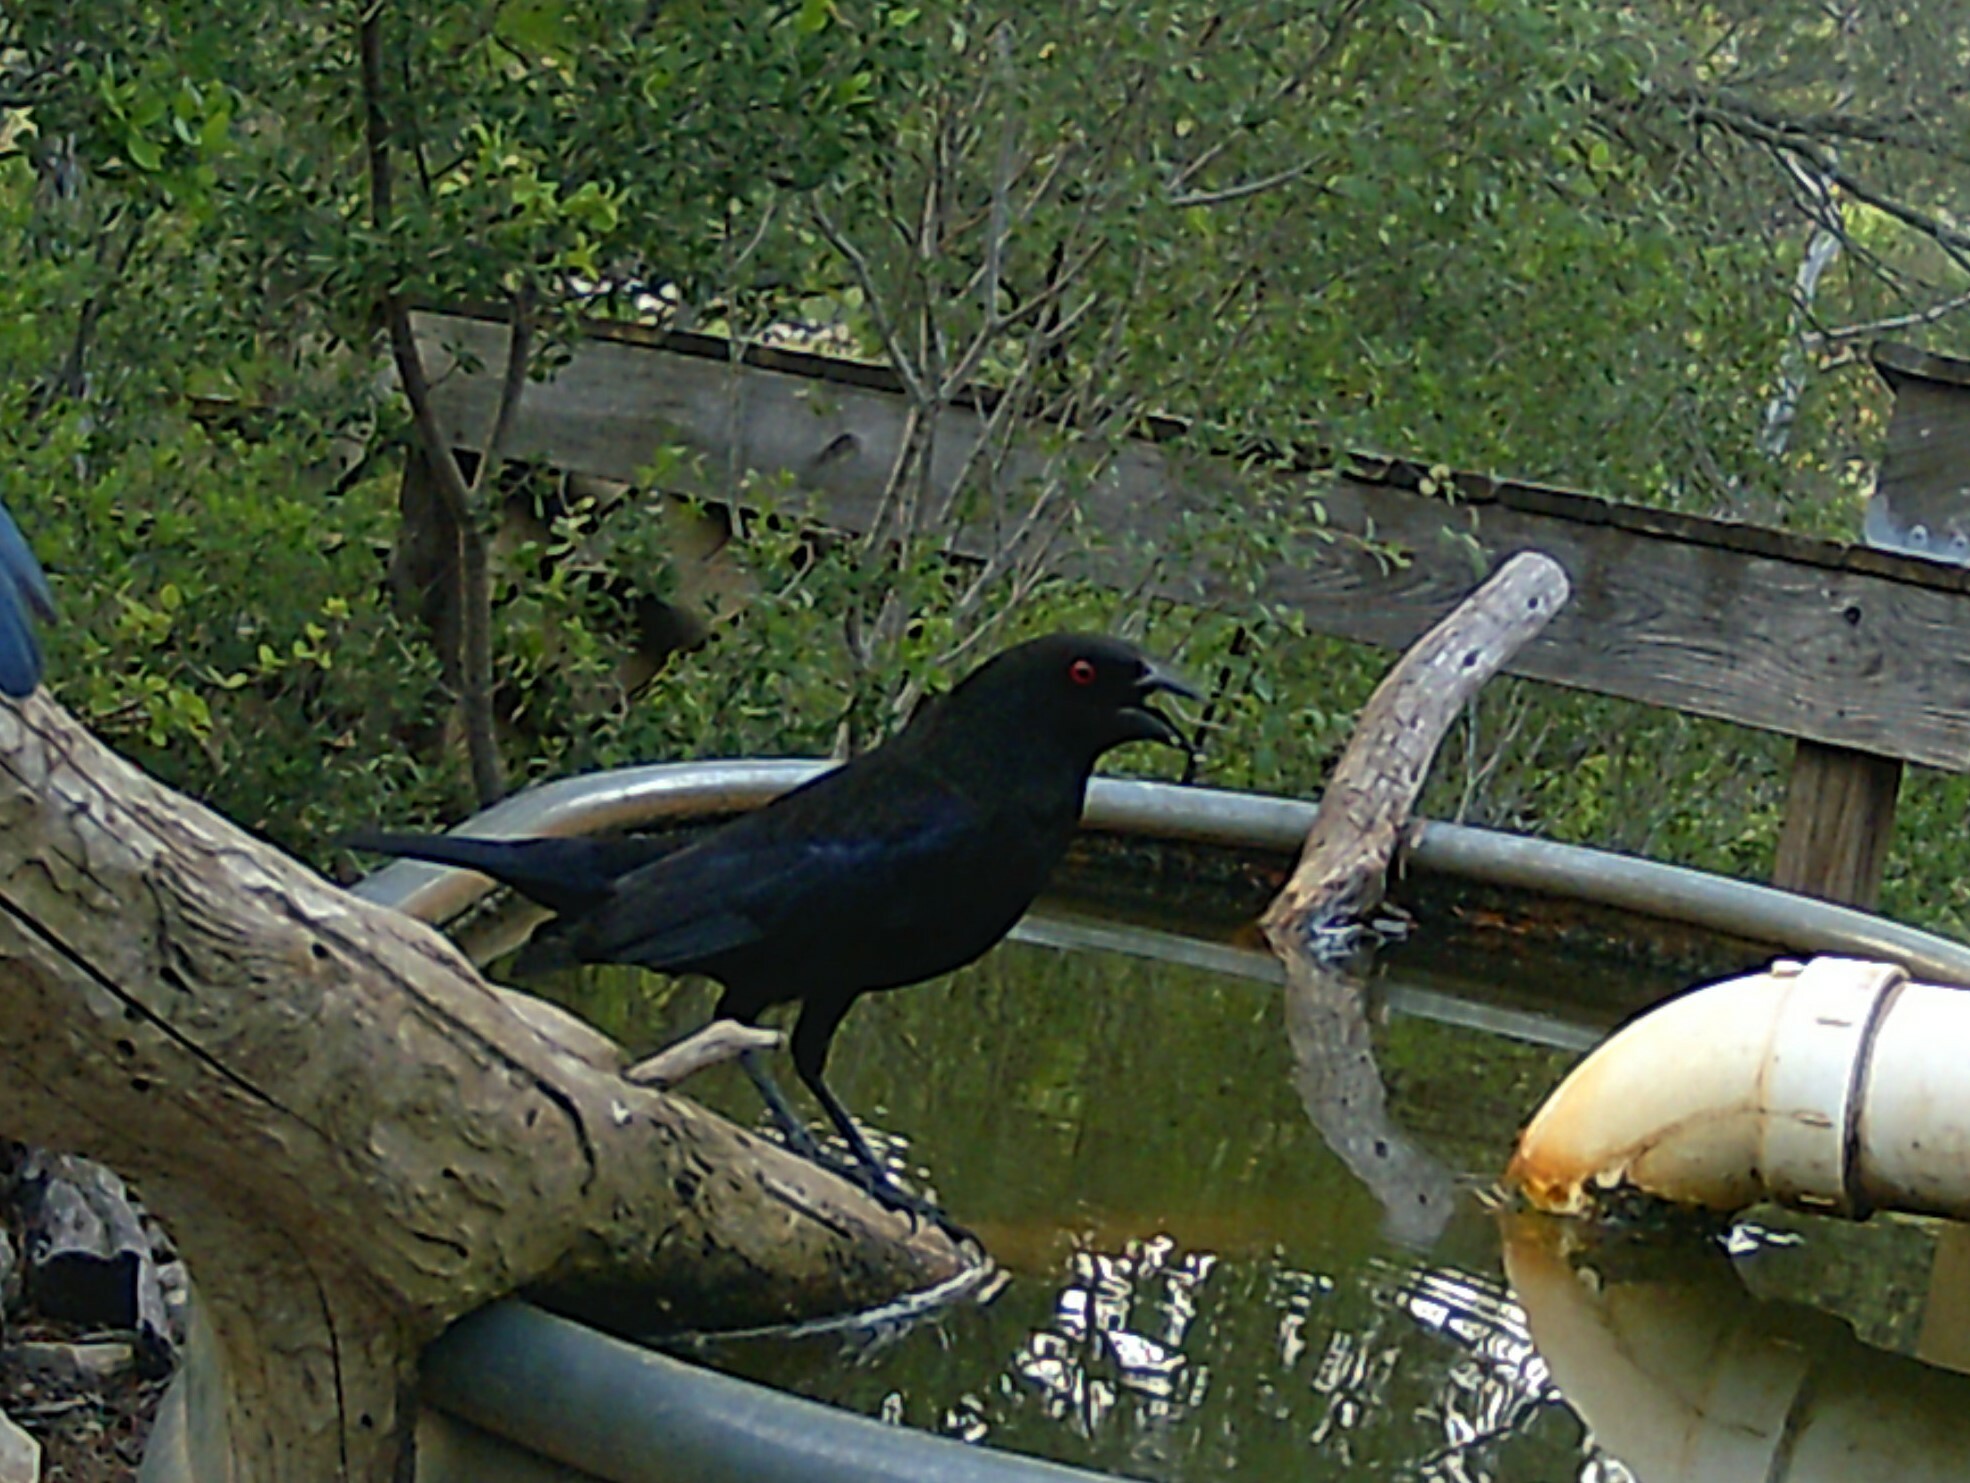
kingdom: Animalia
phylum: Chordata
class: Aves
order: Passeriformes
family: Icteridae
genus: Molothrus
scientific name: Molothrus aeneus
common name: Bronzed cowbird
